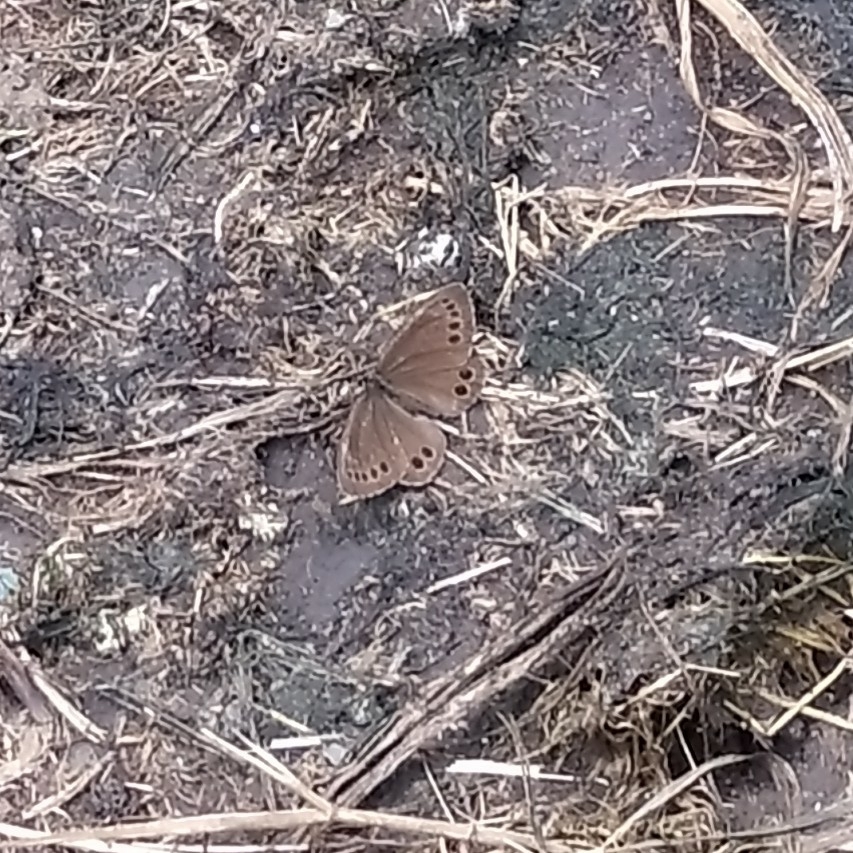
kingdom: Animalia
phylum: Arthropoda
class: Insecta
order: Lepidoptera
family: Nymphalidae
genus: Pararge
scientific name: Pararge Lopinga achine
